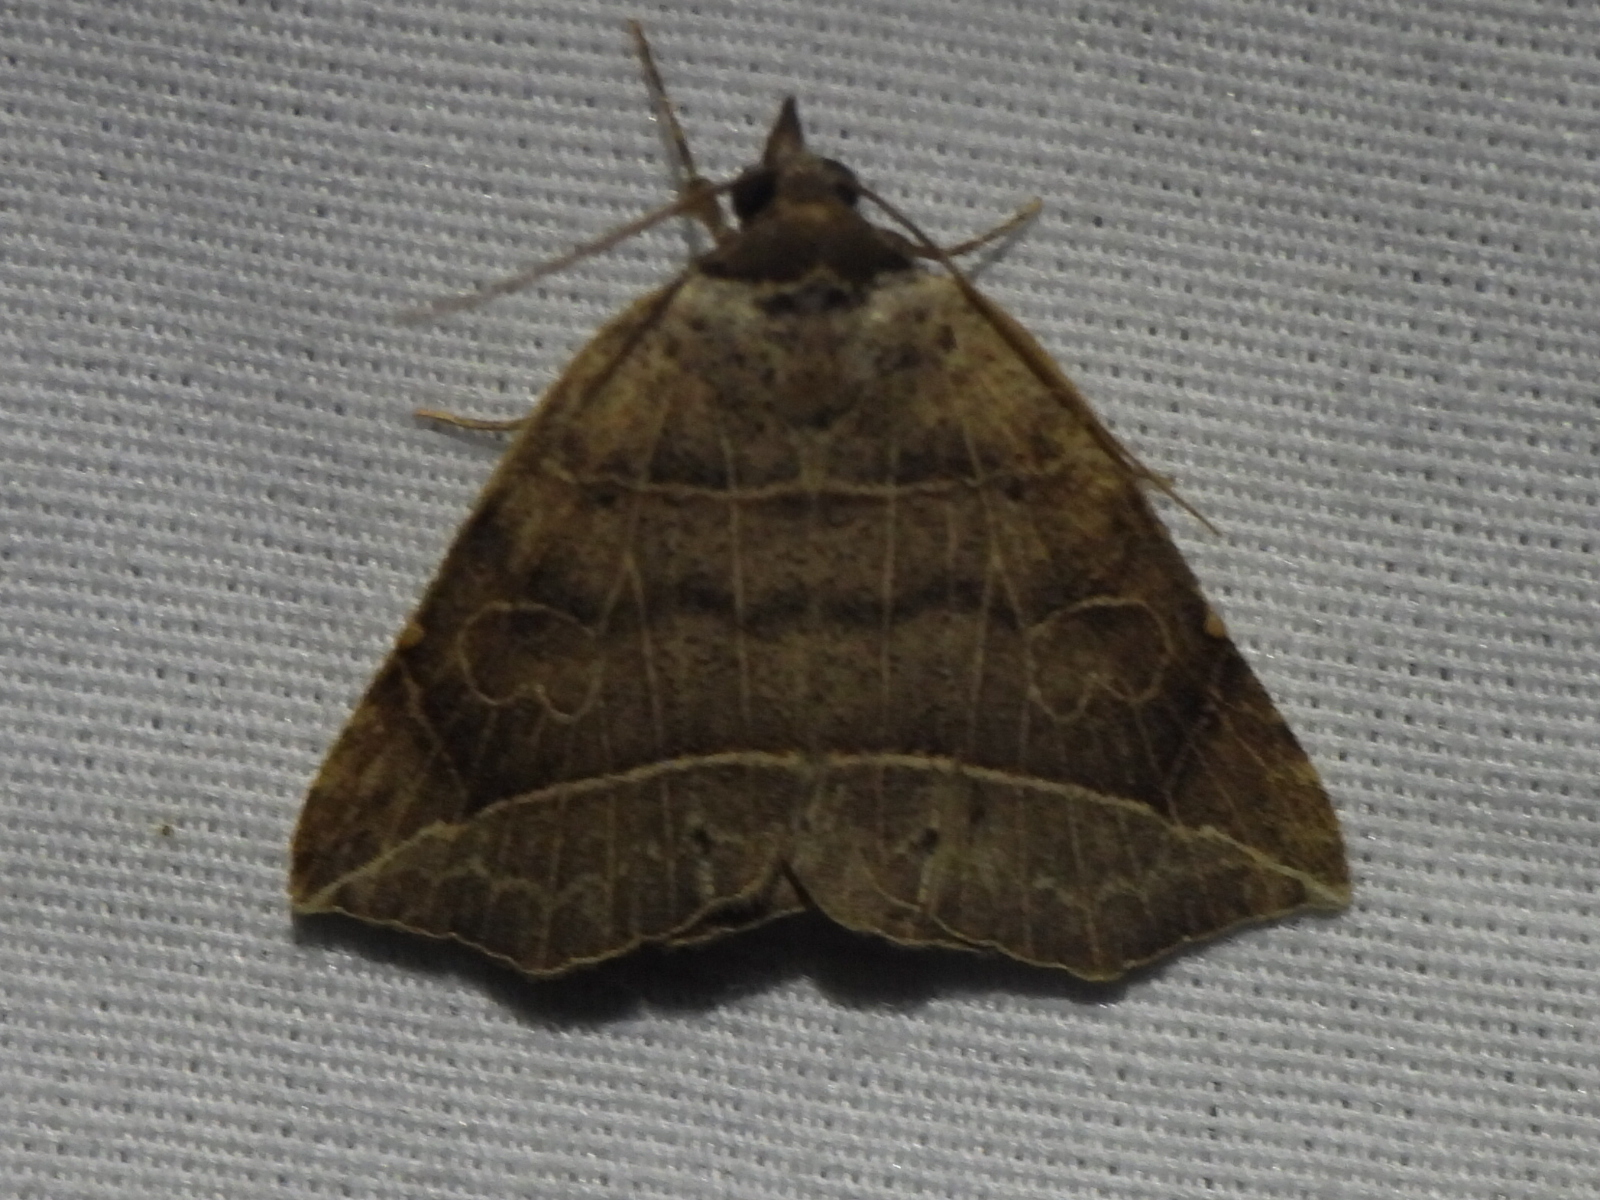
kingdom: Animalia
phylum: Arthropoda
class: Insecta
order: Lepidoptera
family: Erebidae
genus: Isogona
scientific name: Isogona tenuis
